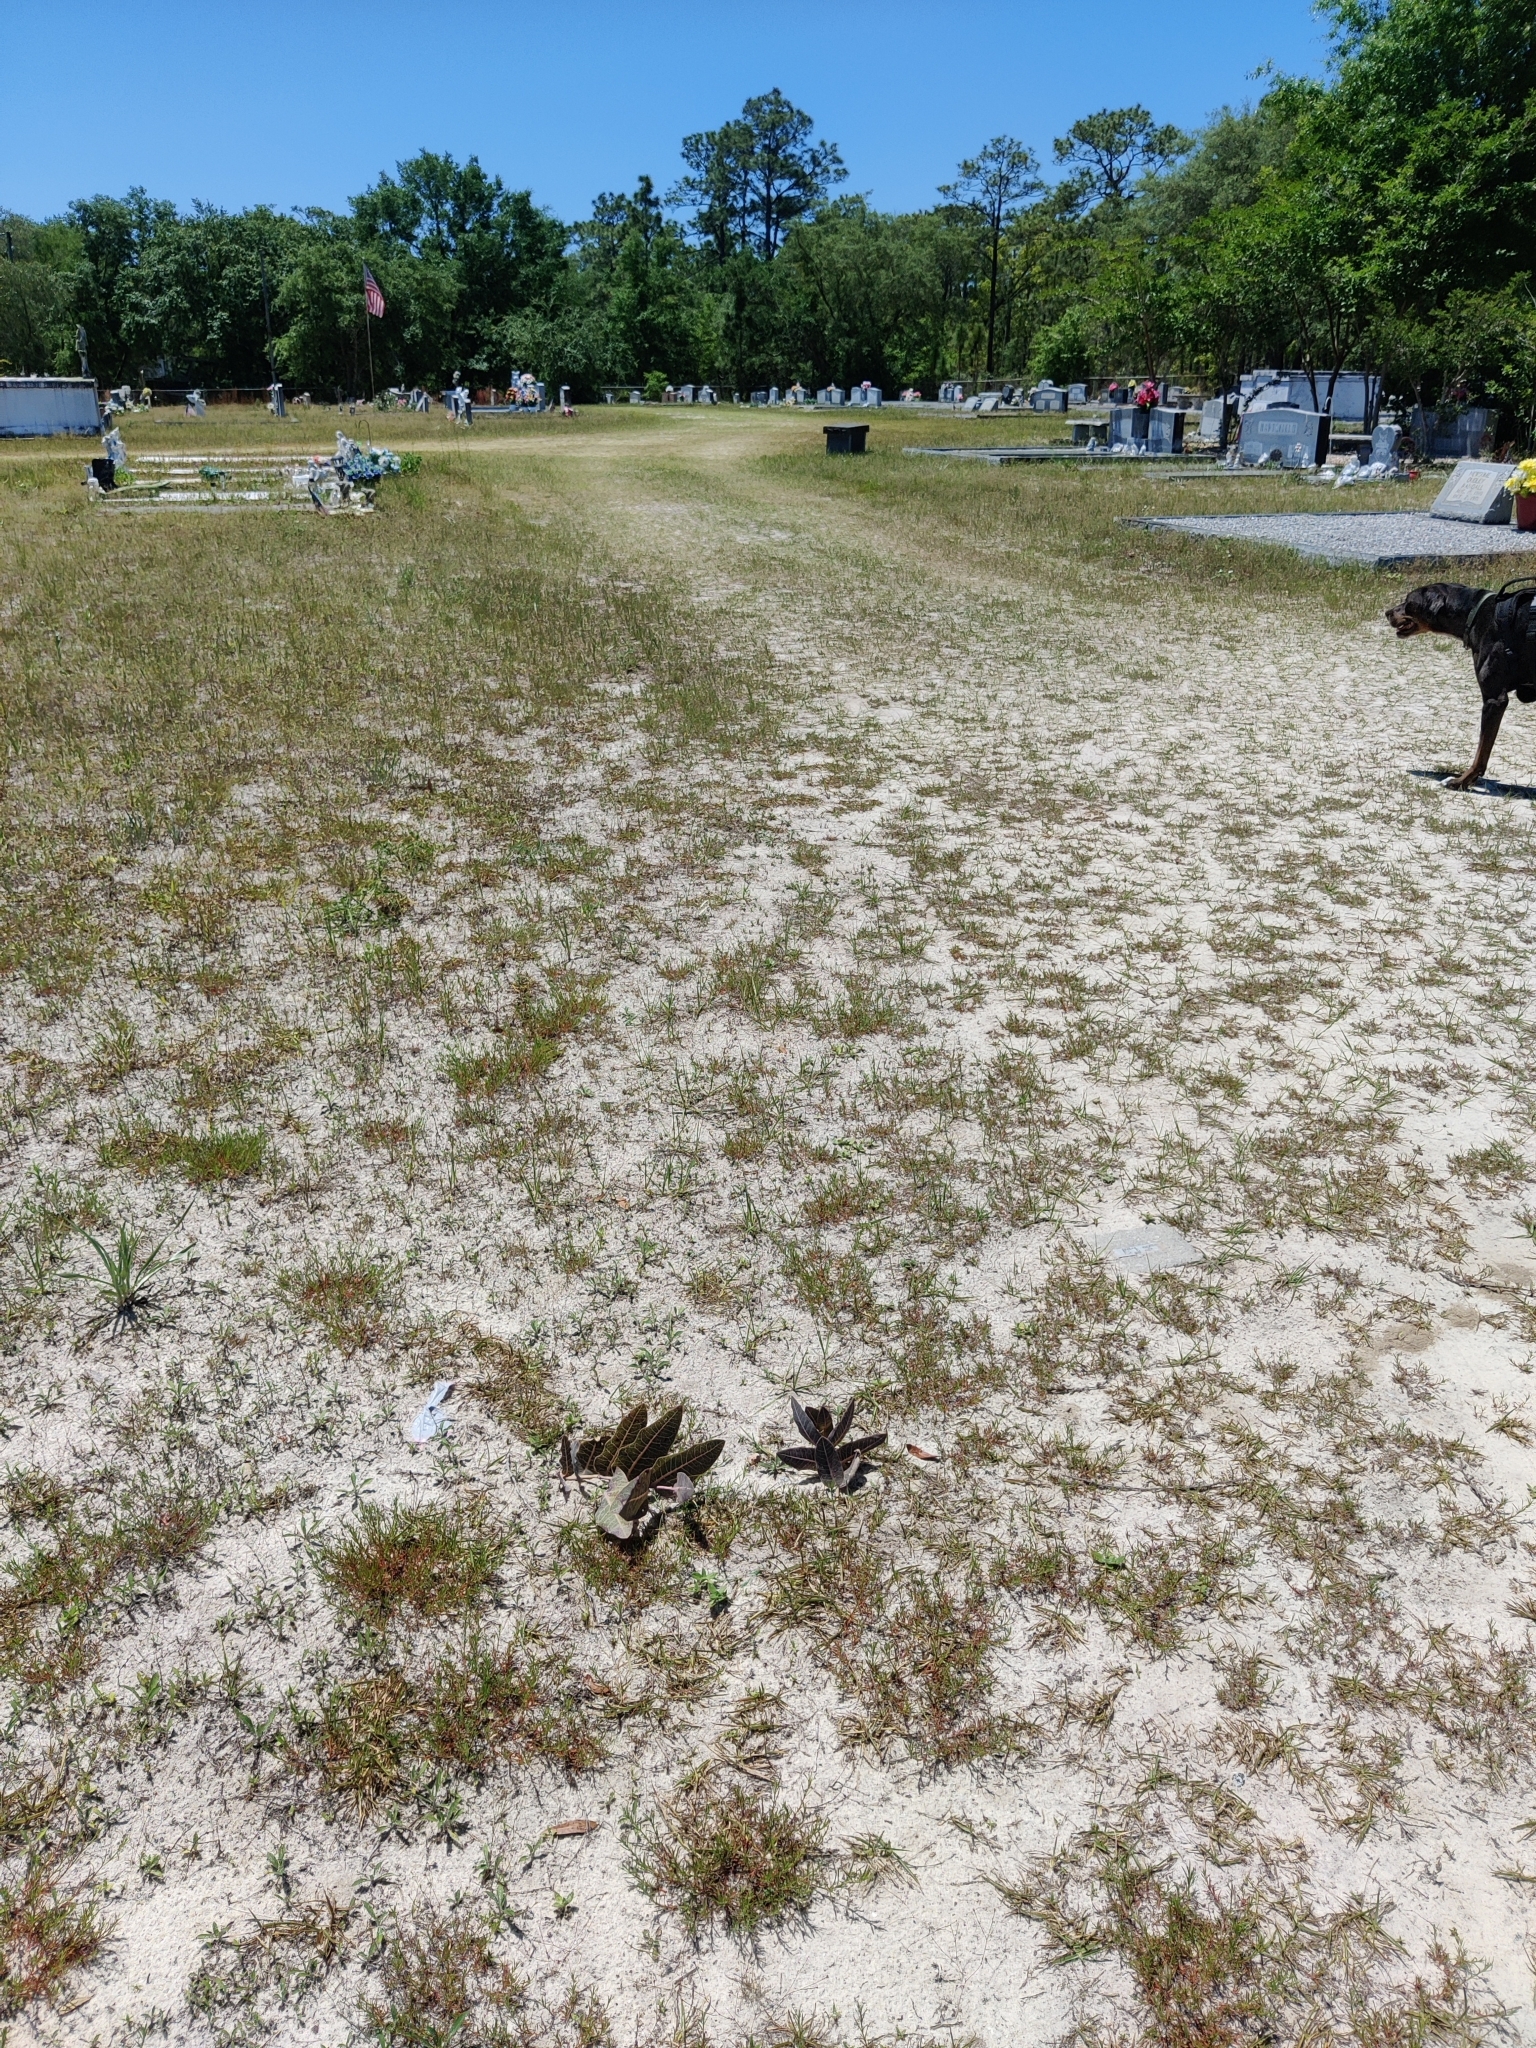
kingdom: Plantae
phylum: Tracheophyta
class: Magnoliopsida
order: Gentianales
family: Apocynaceae
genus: Asclepias
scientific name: Asclepias humistrata
